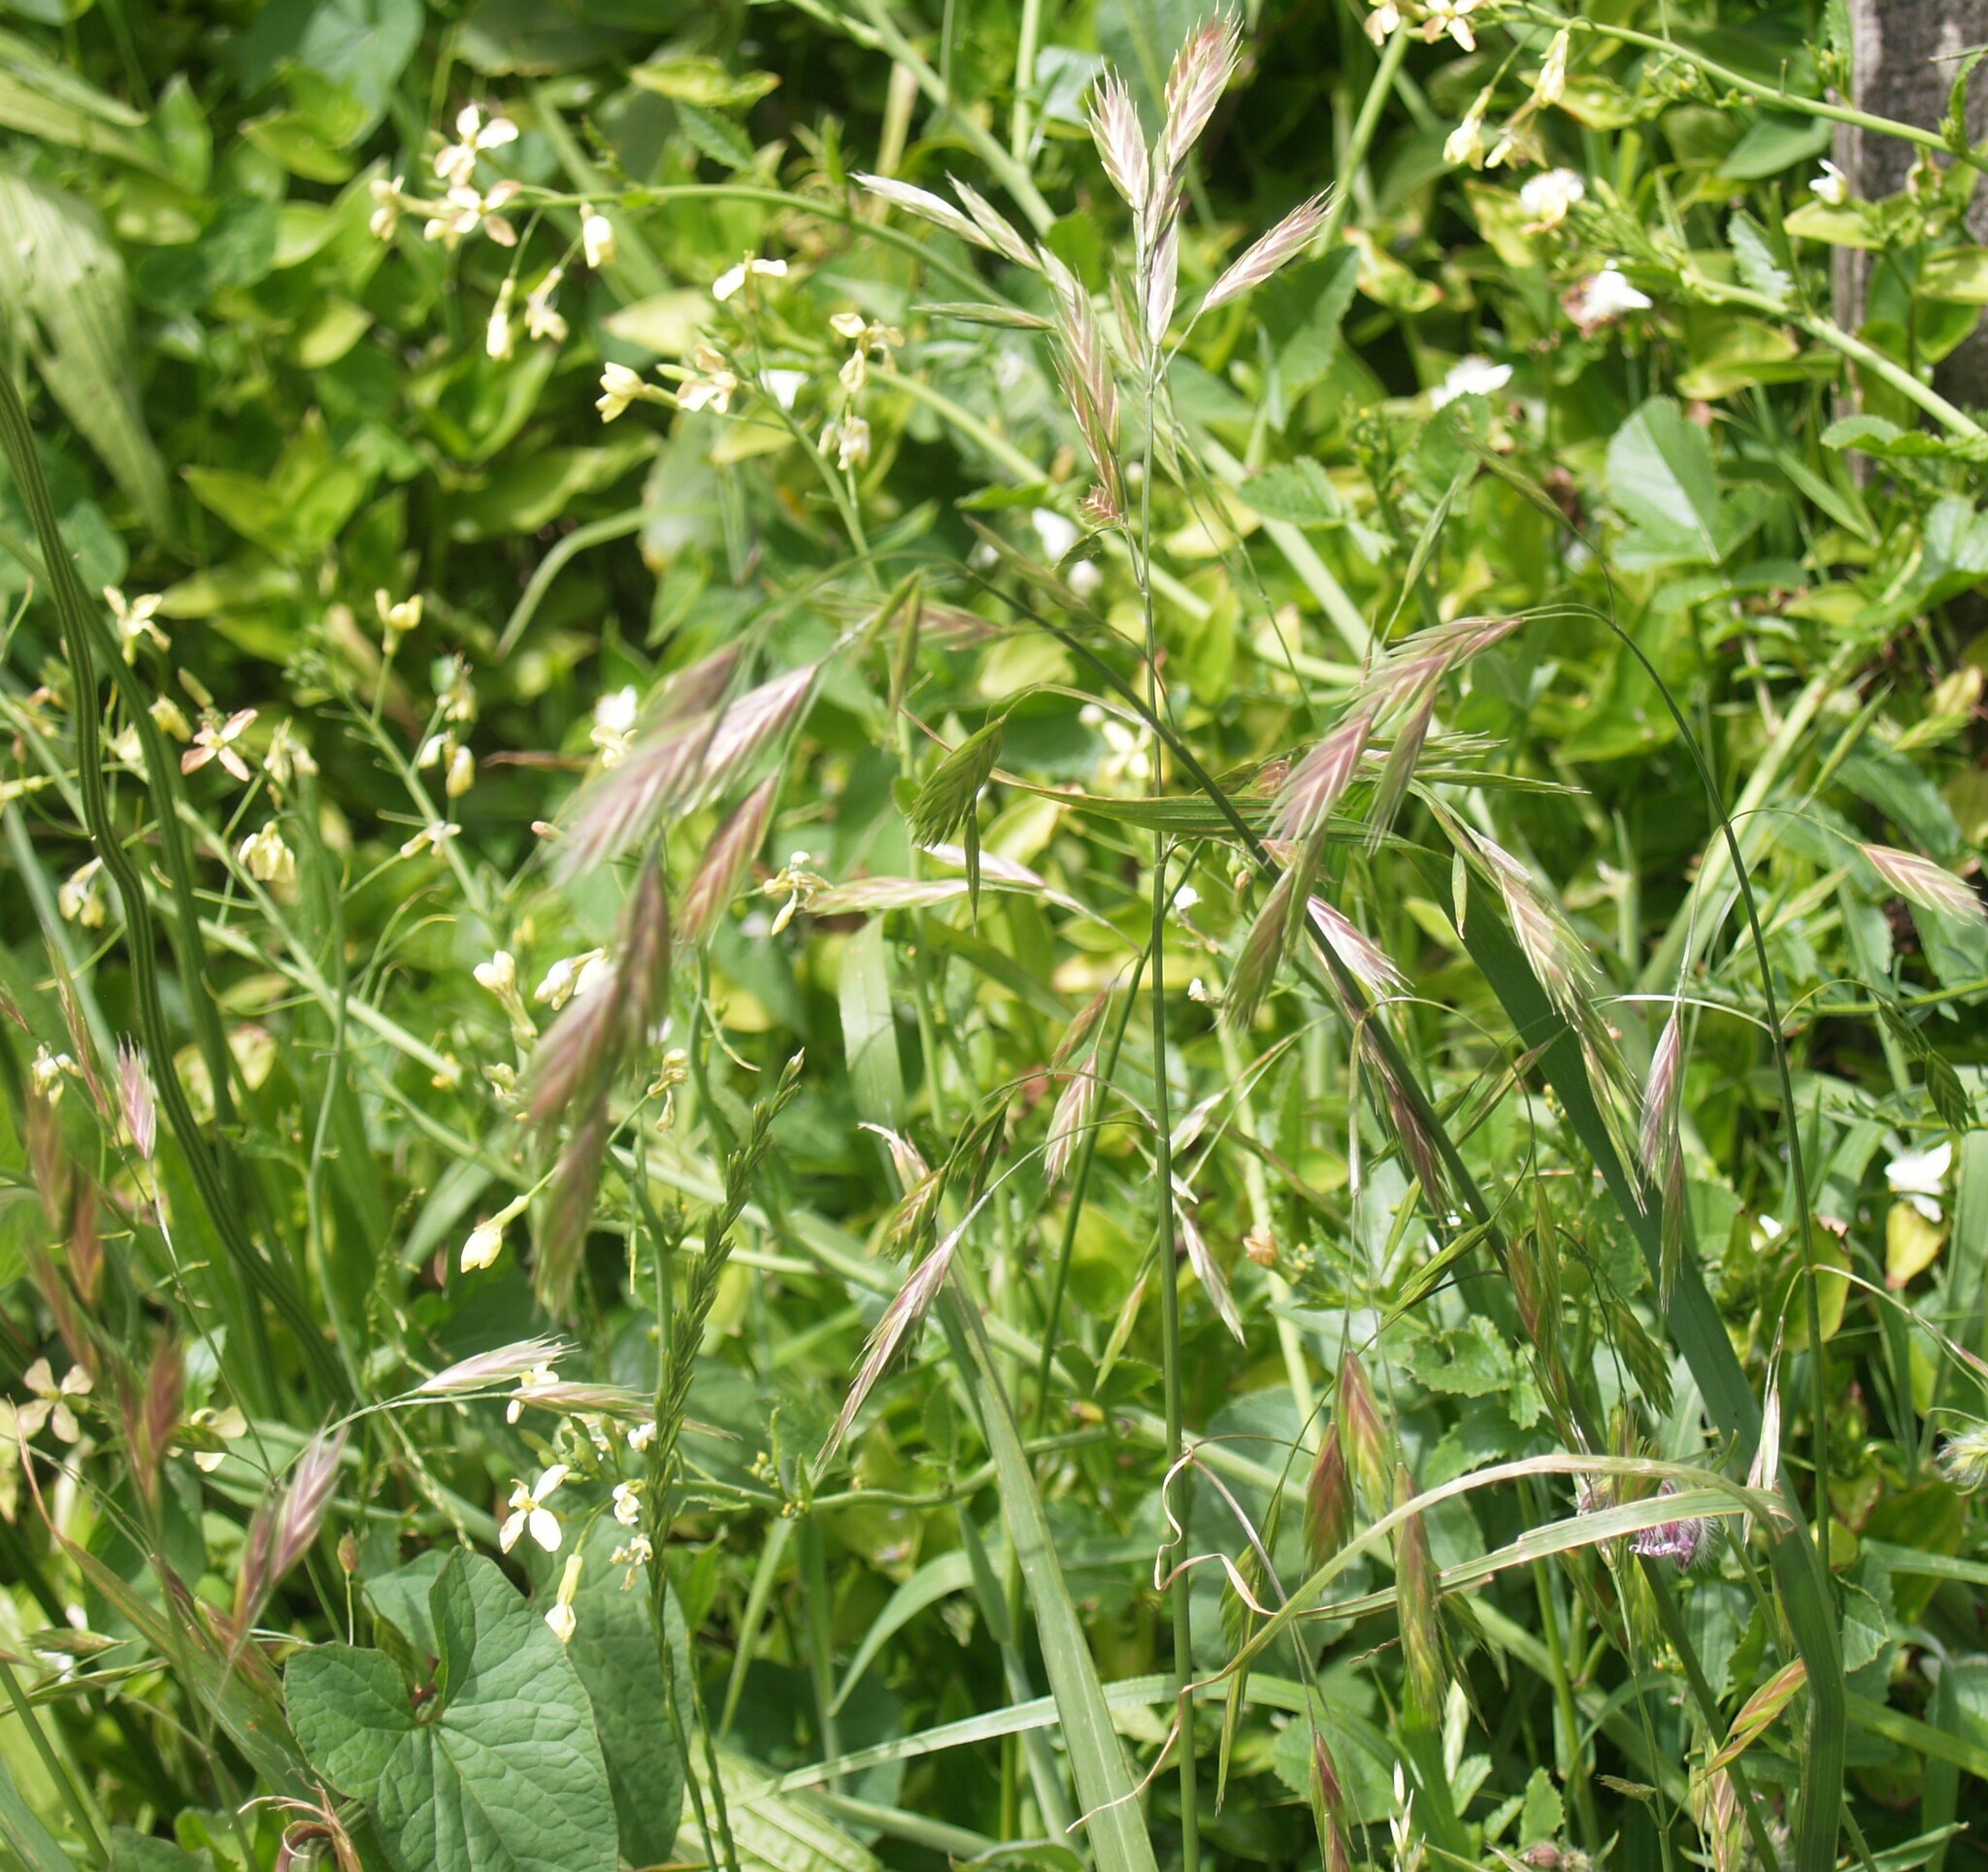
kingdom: Plantae
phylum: Tracheophyta
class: Liliopsida
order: Poales
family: Poaceae
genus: Bromus
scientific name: Bromus catharticus
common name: Rescuegrass
